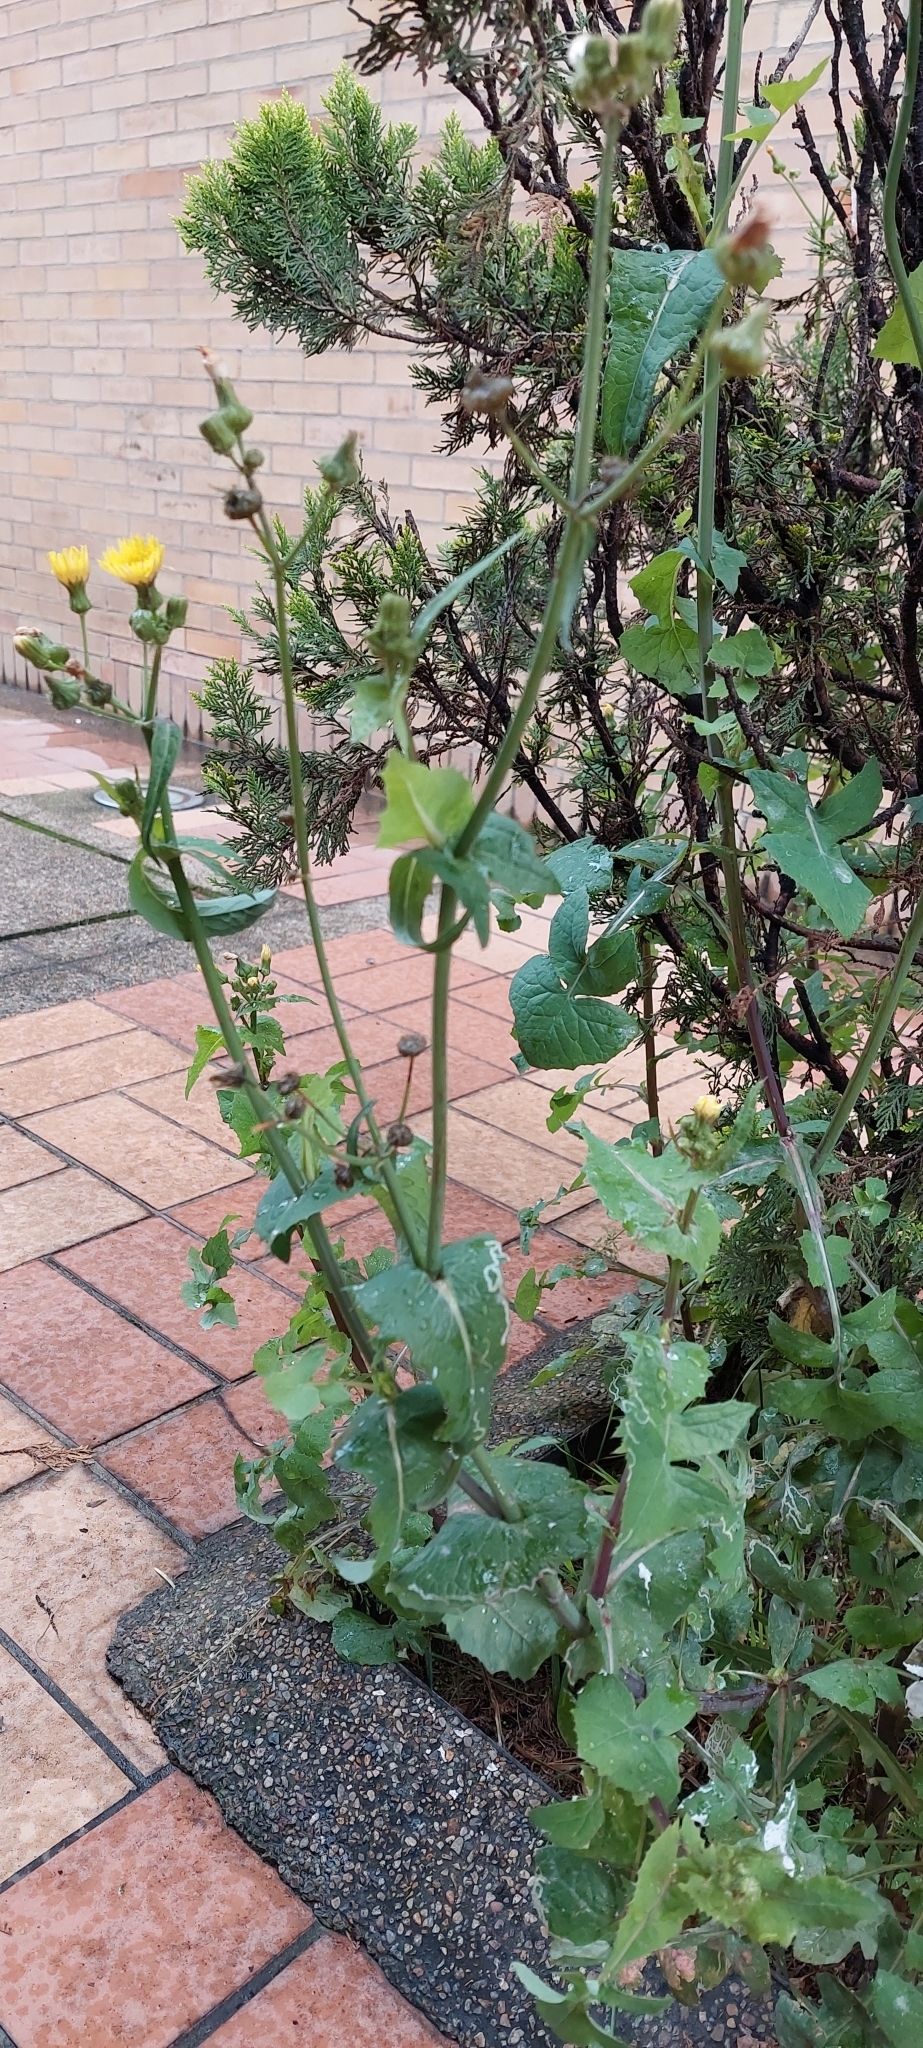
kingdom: Plantae
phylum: Tracheophyta
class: Magnoliopsida
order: Asterales
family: Asteraceae
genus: Sonchus
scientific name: Sonchus oleraceus
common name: Common sowthistle
